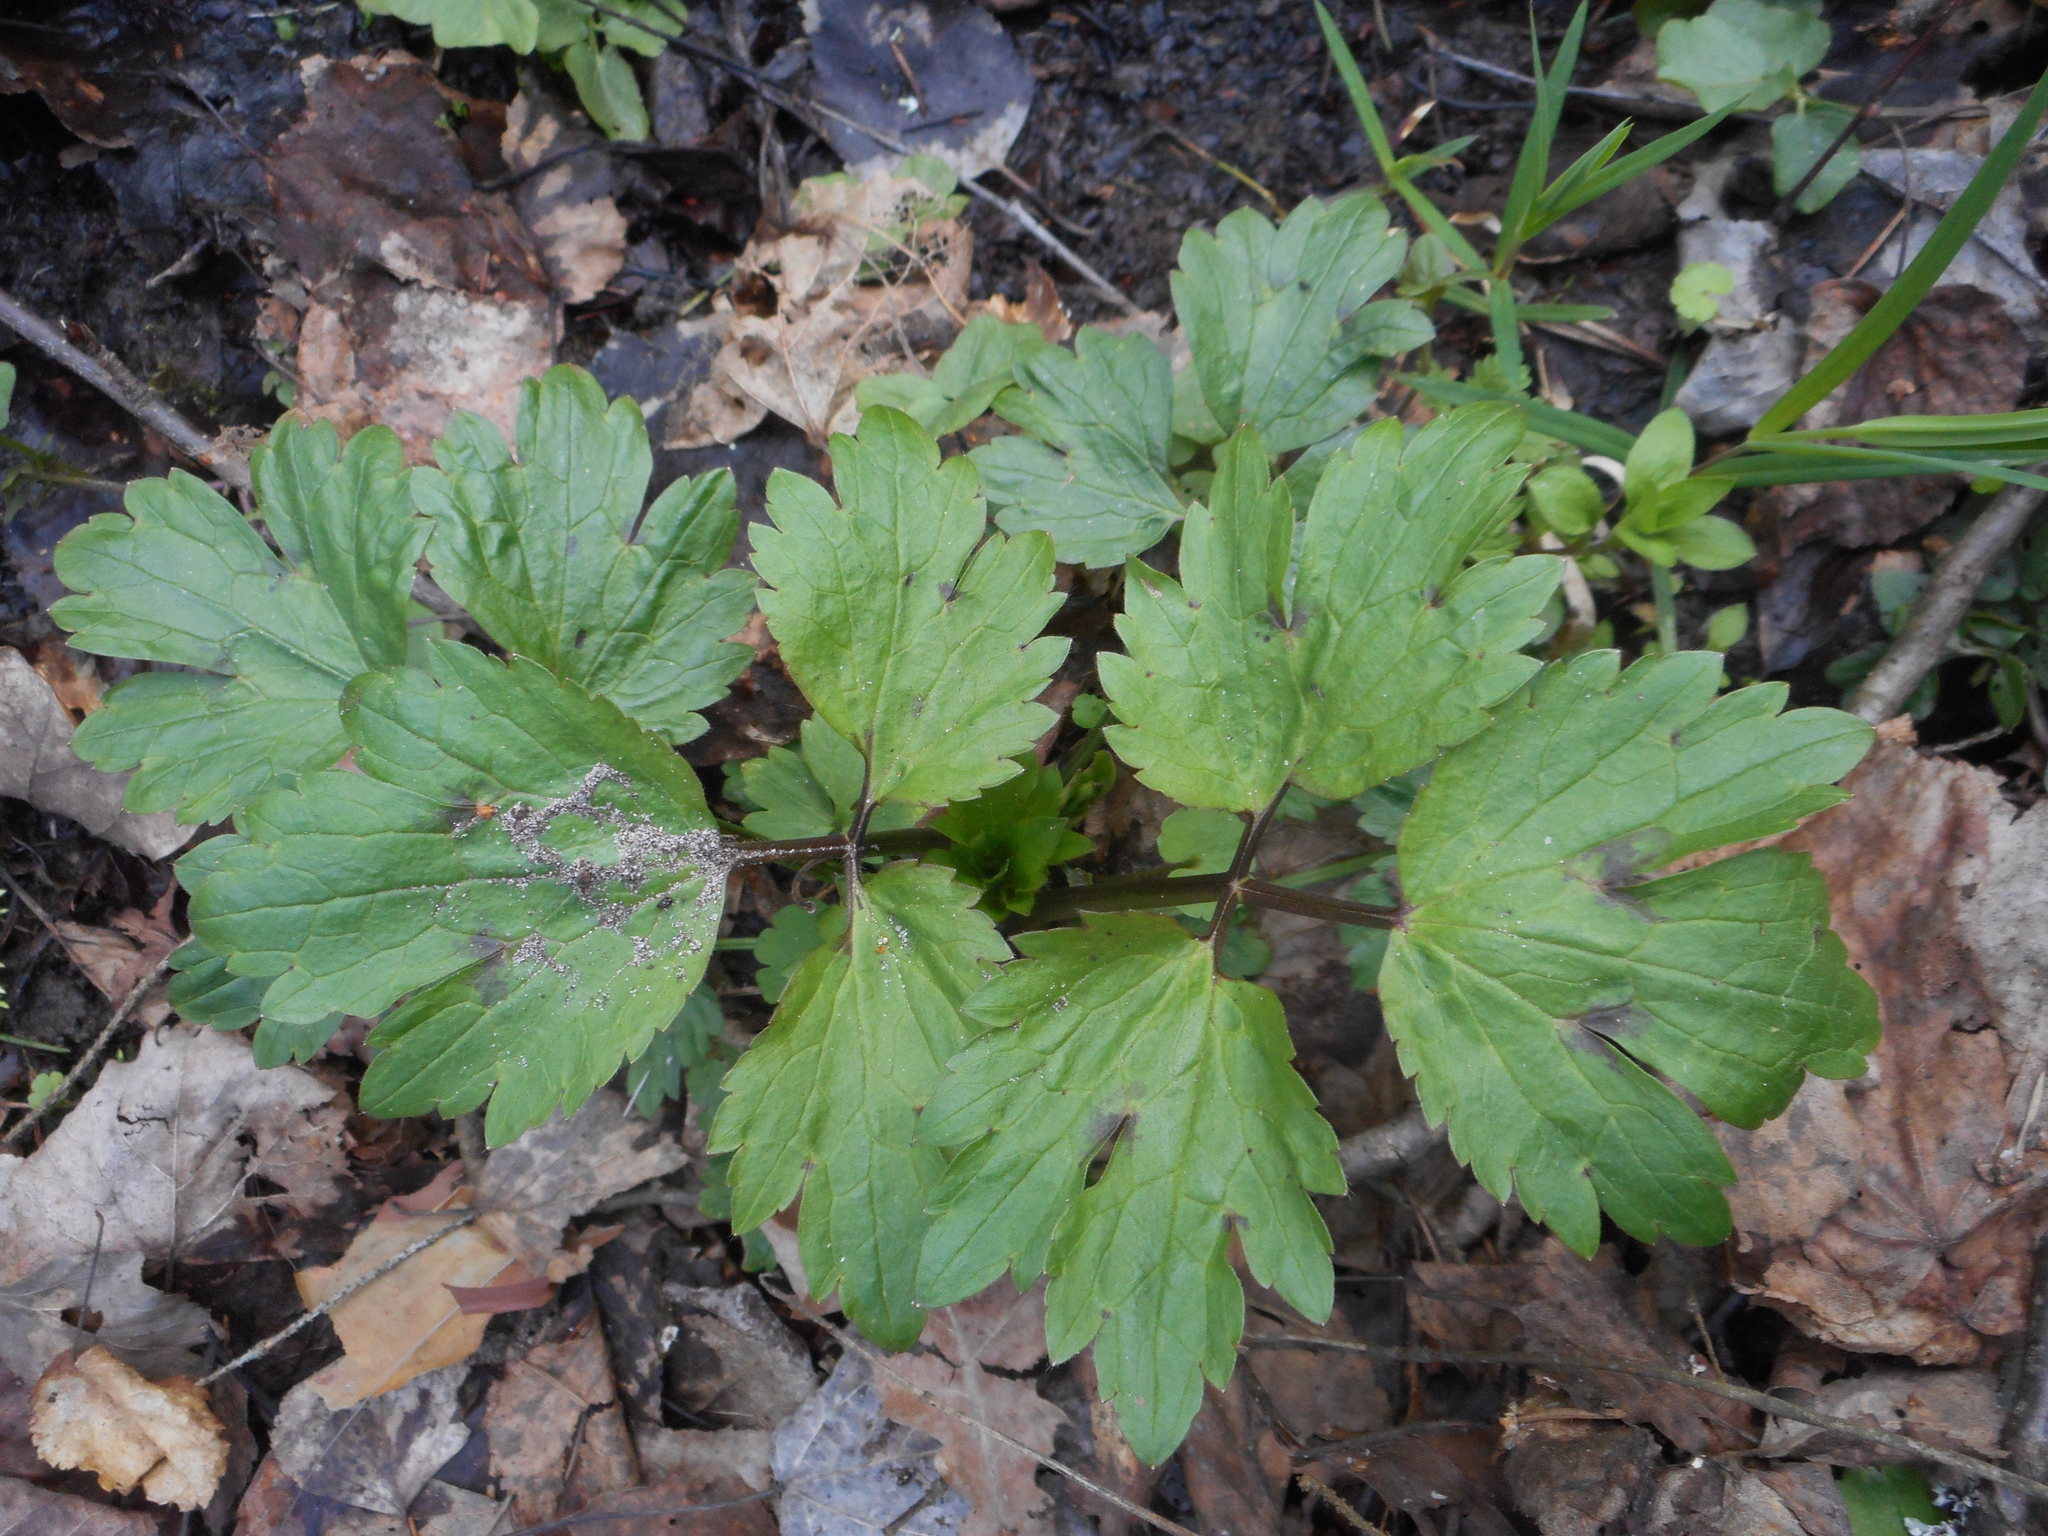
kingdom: Plantae
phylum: Tracheophyta
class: Magnoliopsida
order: Ranunculales
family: Ranunculaceae
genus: Ranunculus
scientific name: Ranunculus repens
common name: Creeping buttercup
